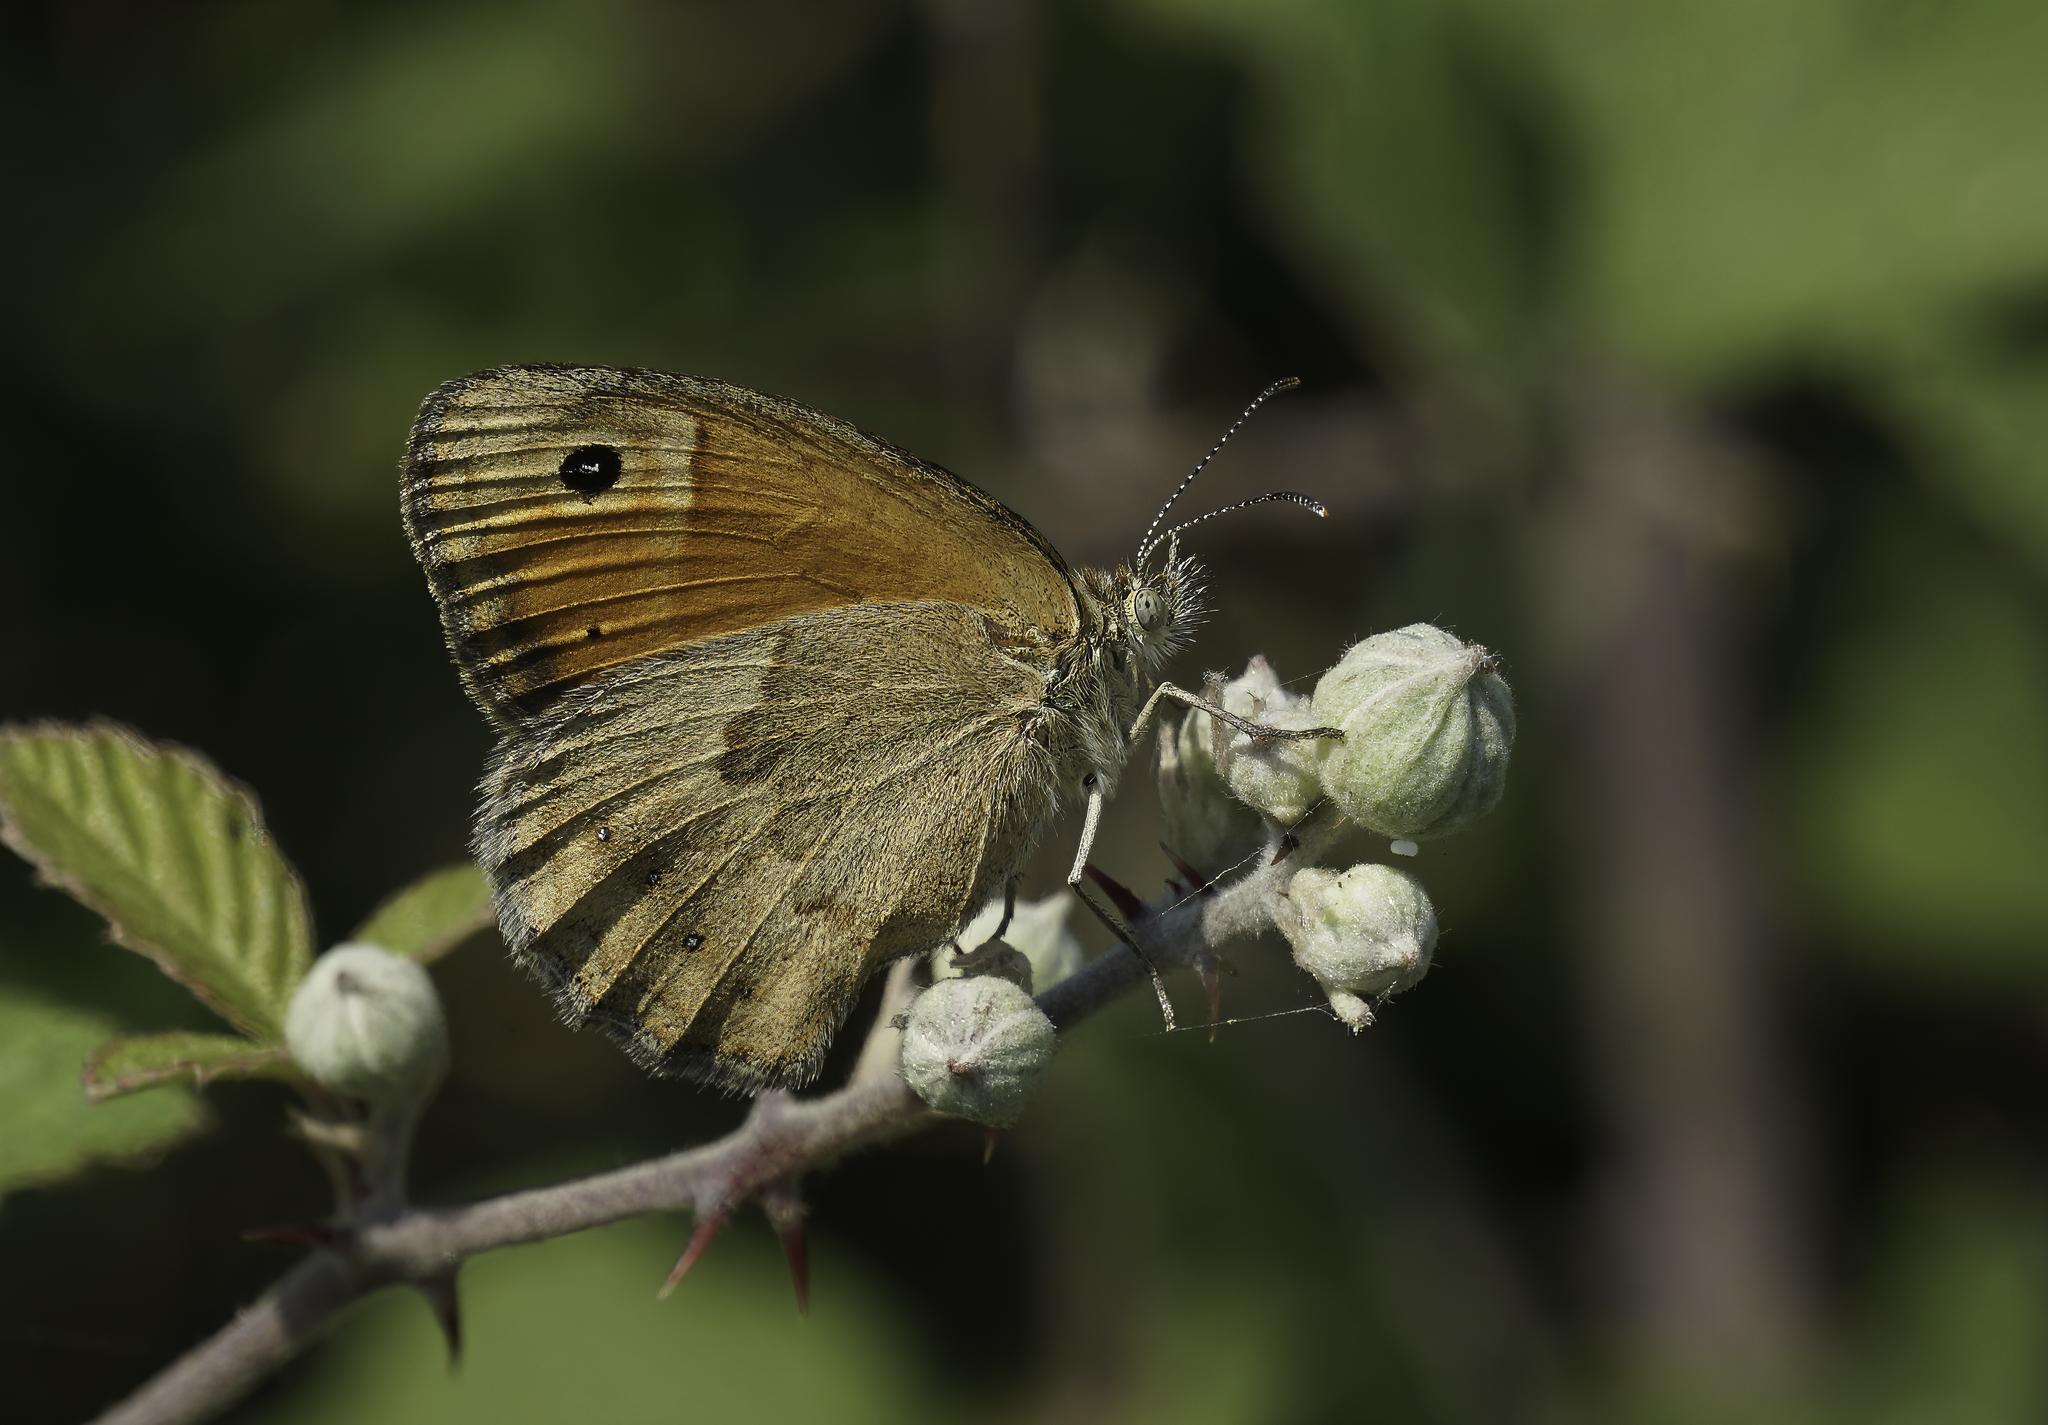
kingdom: Animalia
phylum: Arthropoda
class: Insecta
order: Lepidoptera
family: Nymphalidae
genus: Coenonympha
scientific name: Coenonympha pamphilus
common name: Small heath
